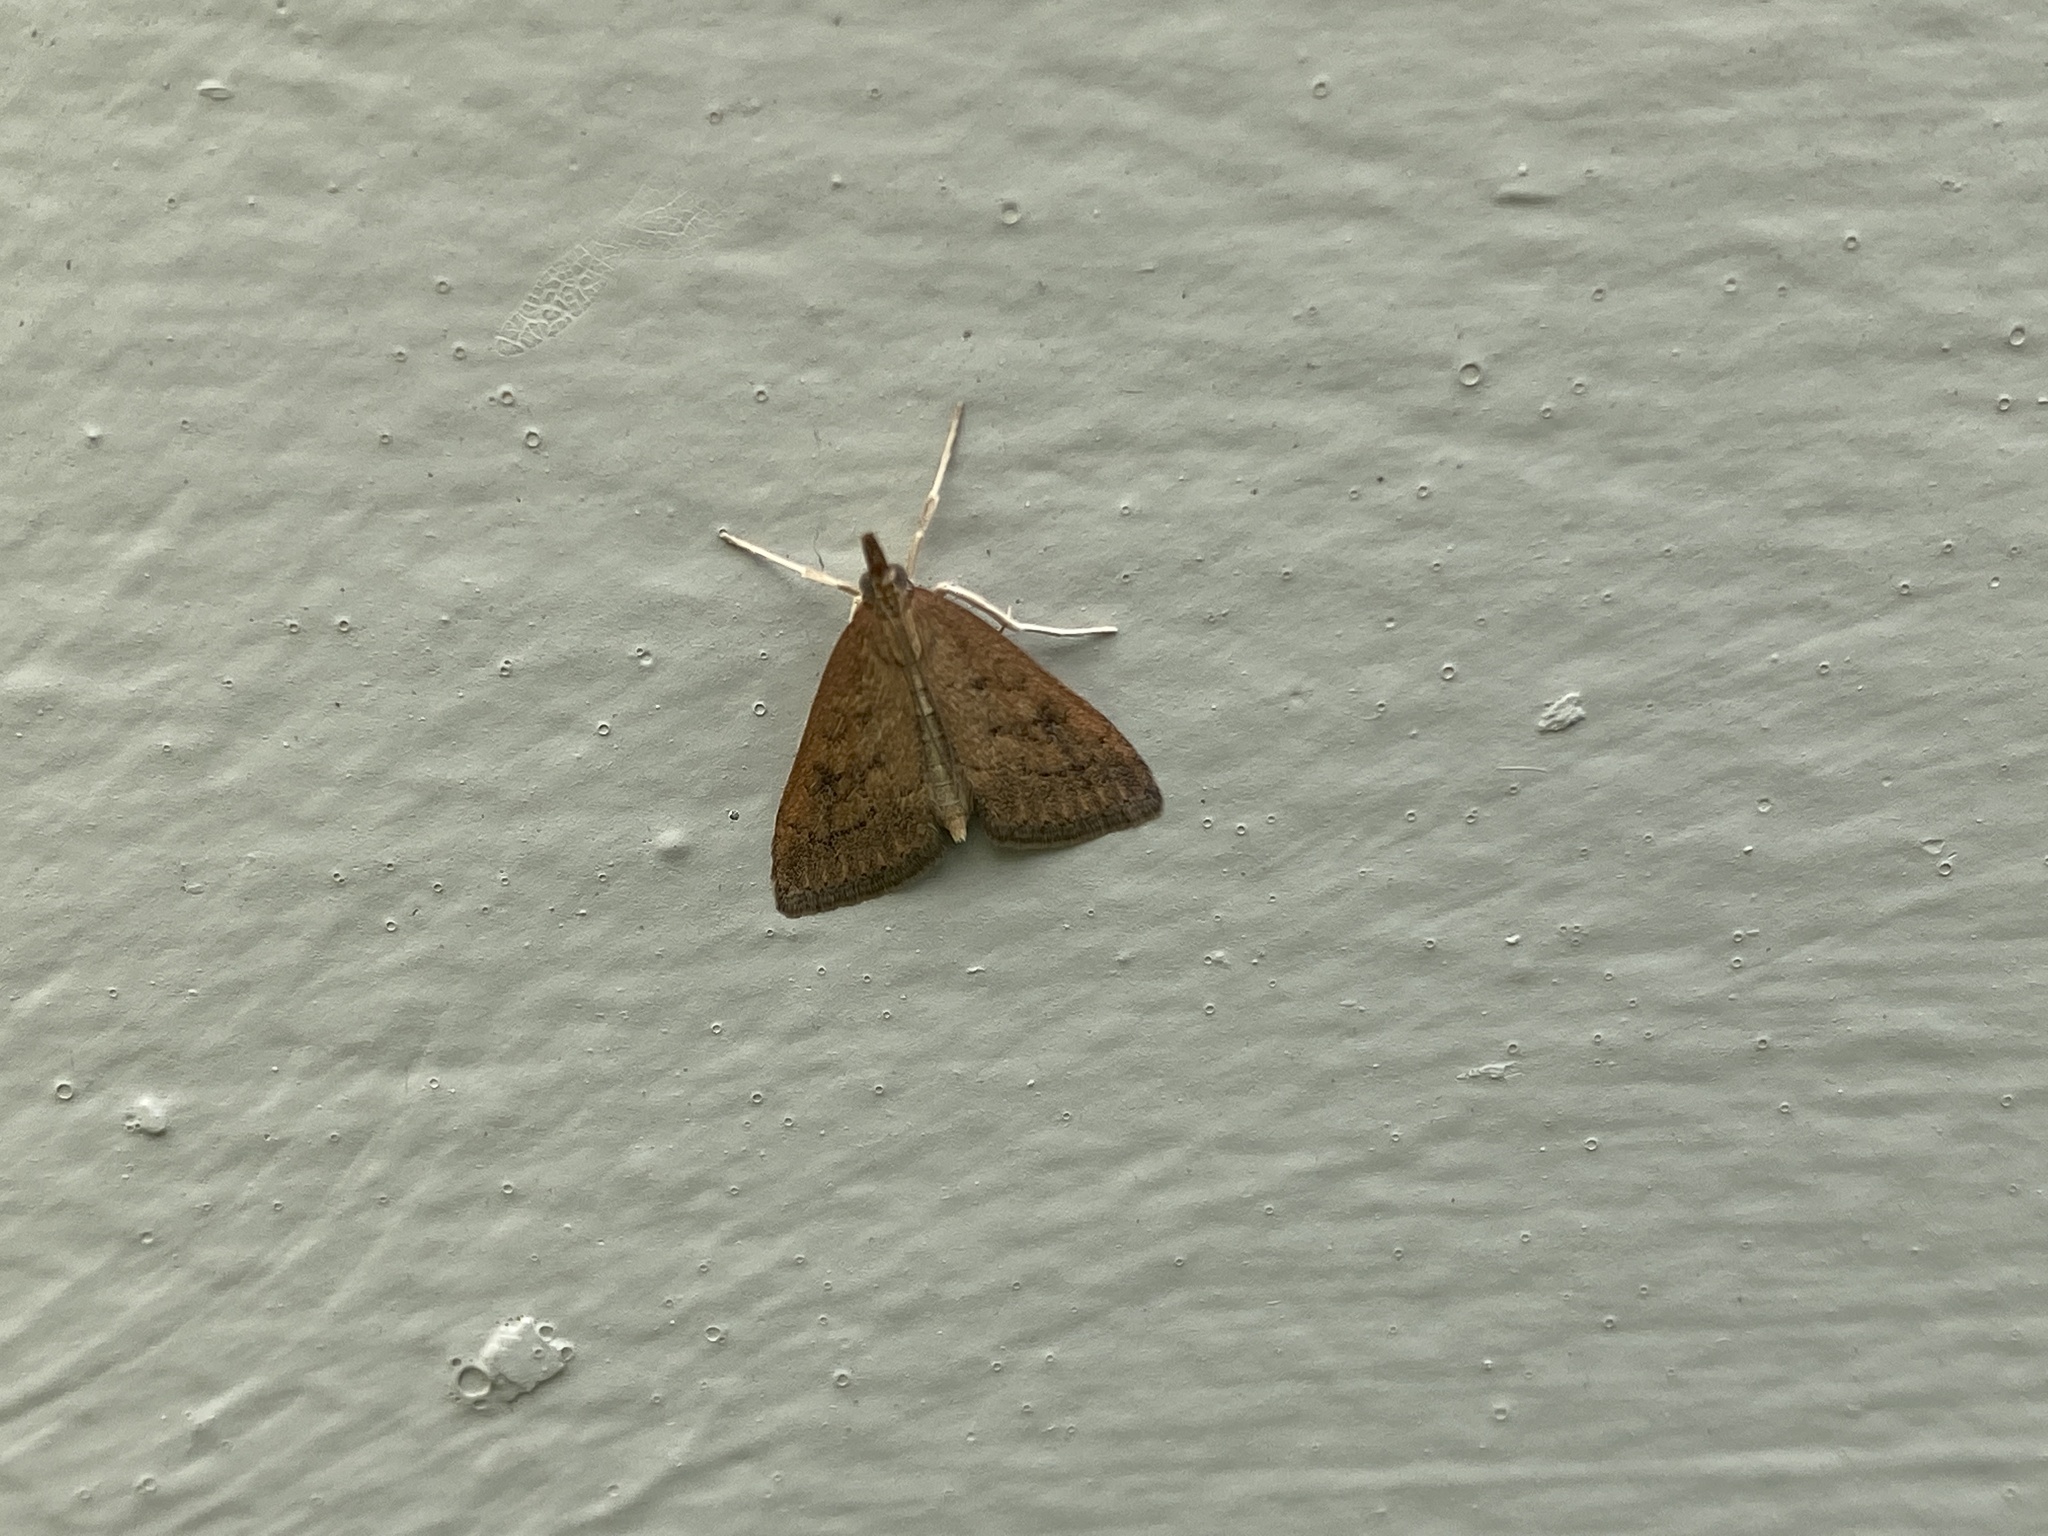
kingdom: Animalia
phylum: Arthropoda
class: Insecta
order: Lepidoptera
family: Crambidae
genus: Udea
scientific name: Udea rubigalis
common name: Celery leaftier moth
